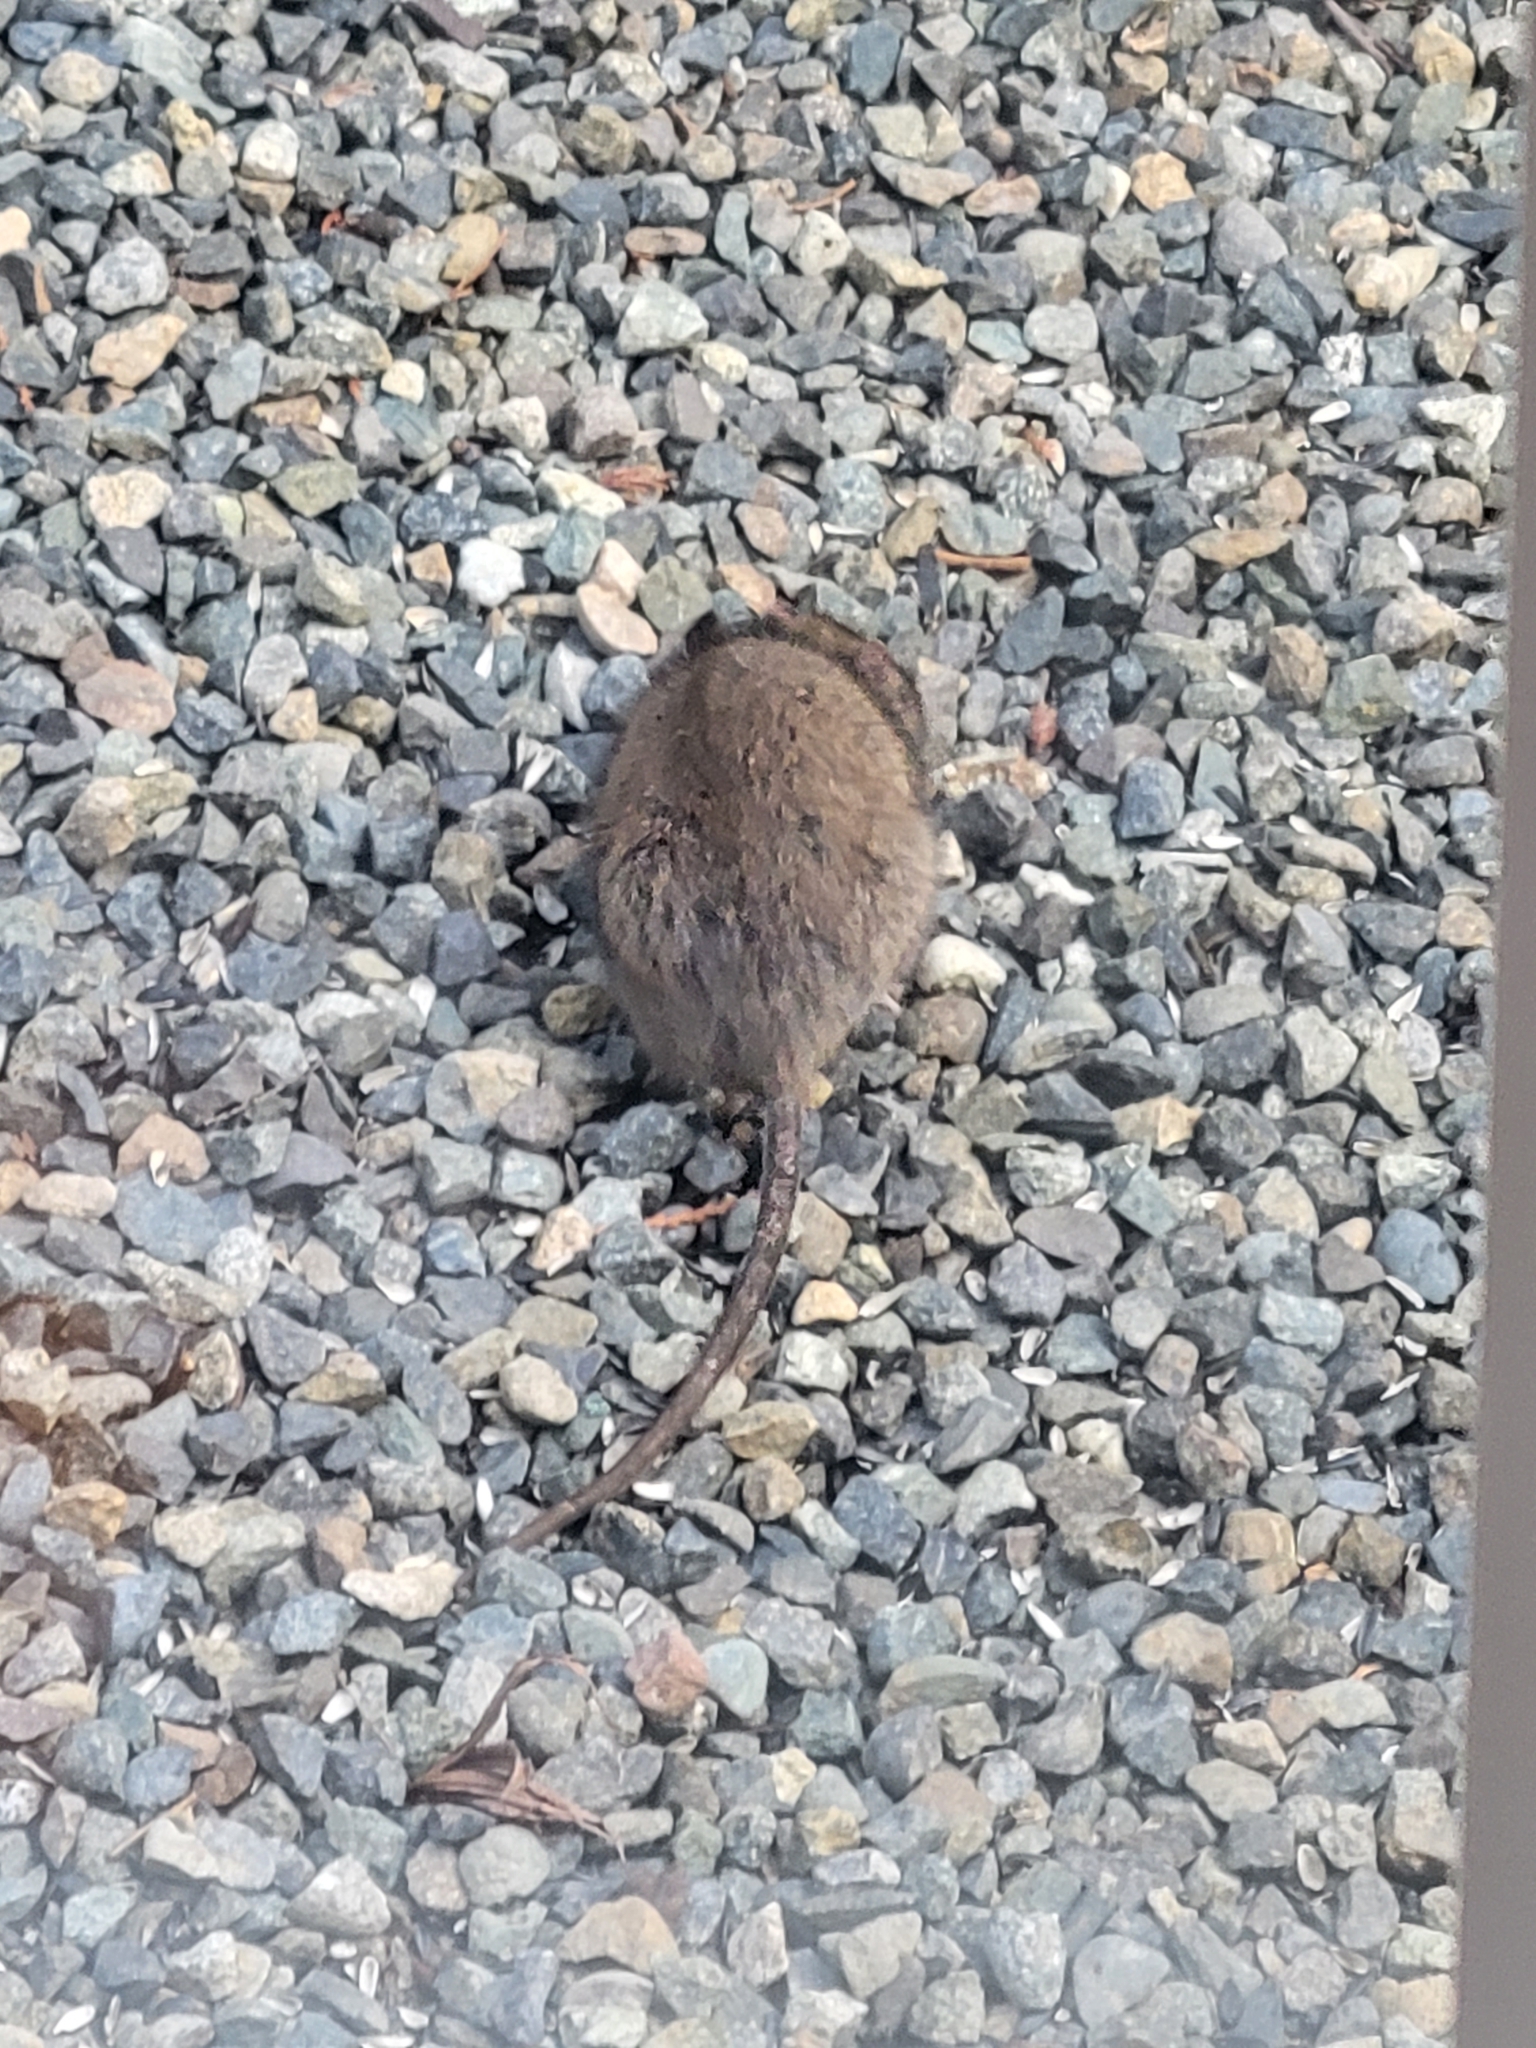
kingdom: Animalia
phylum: Chordata
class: Mammalia
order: Rodentia
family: Muridae
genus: Rattus
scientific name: Rattus norvegicus
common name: Brown rat
